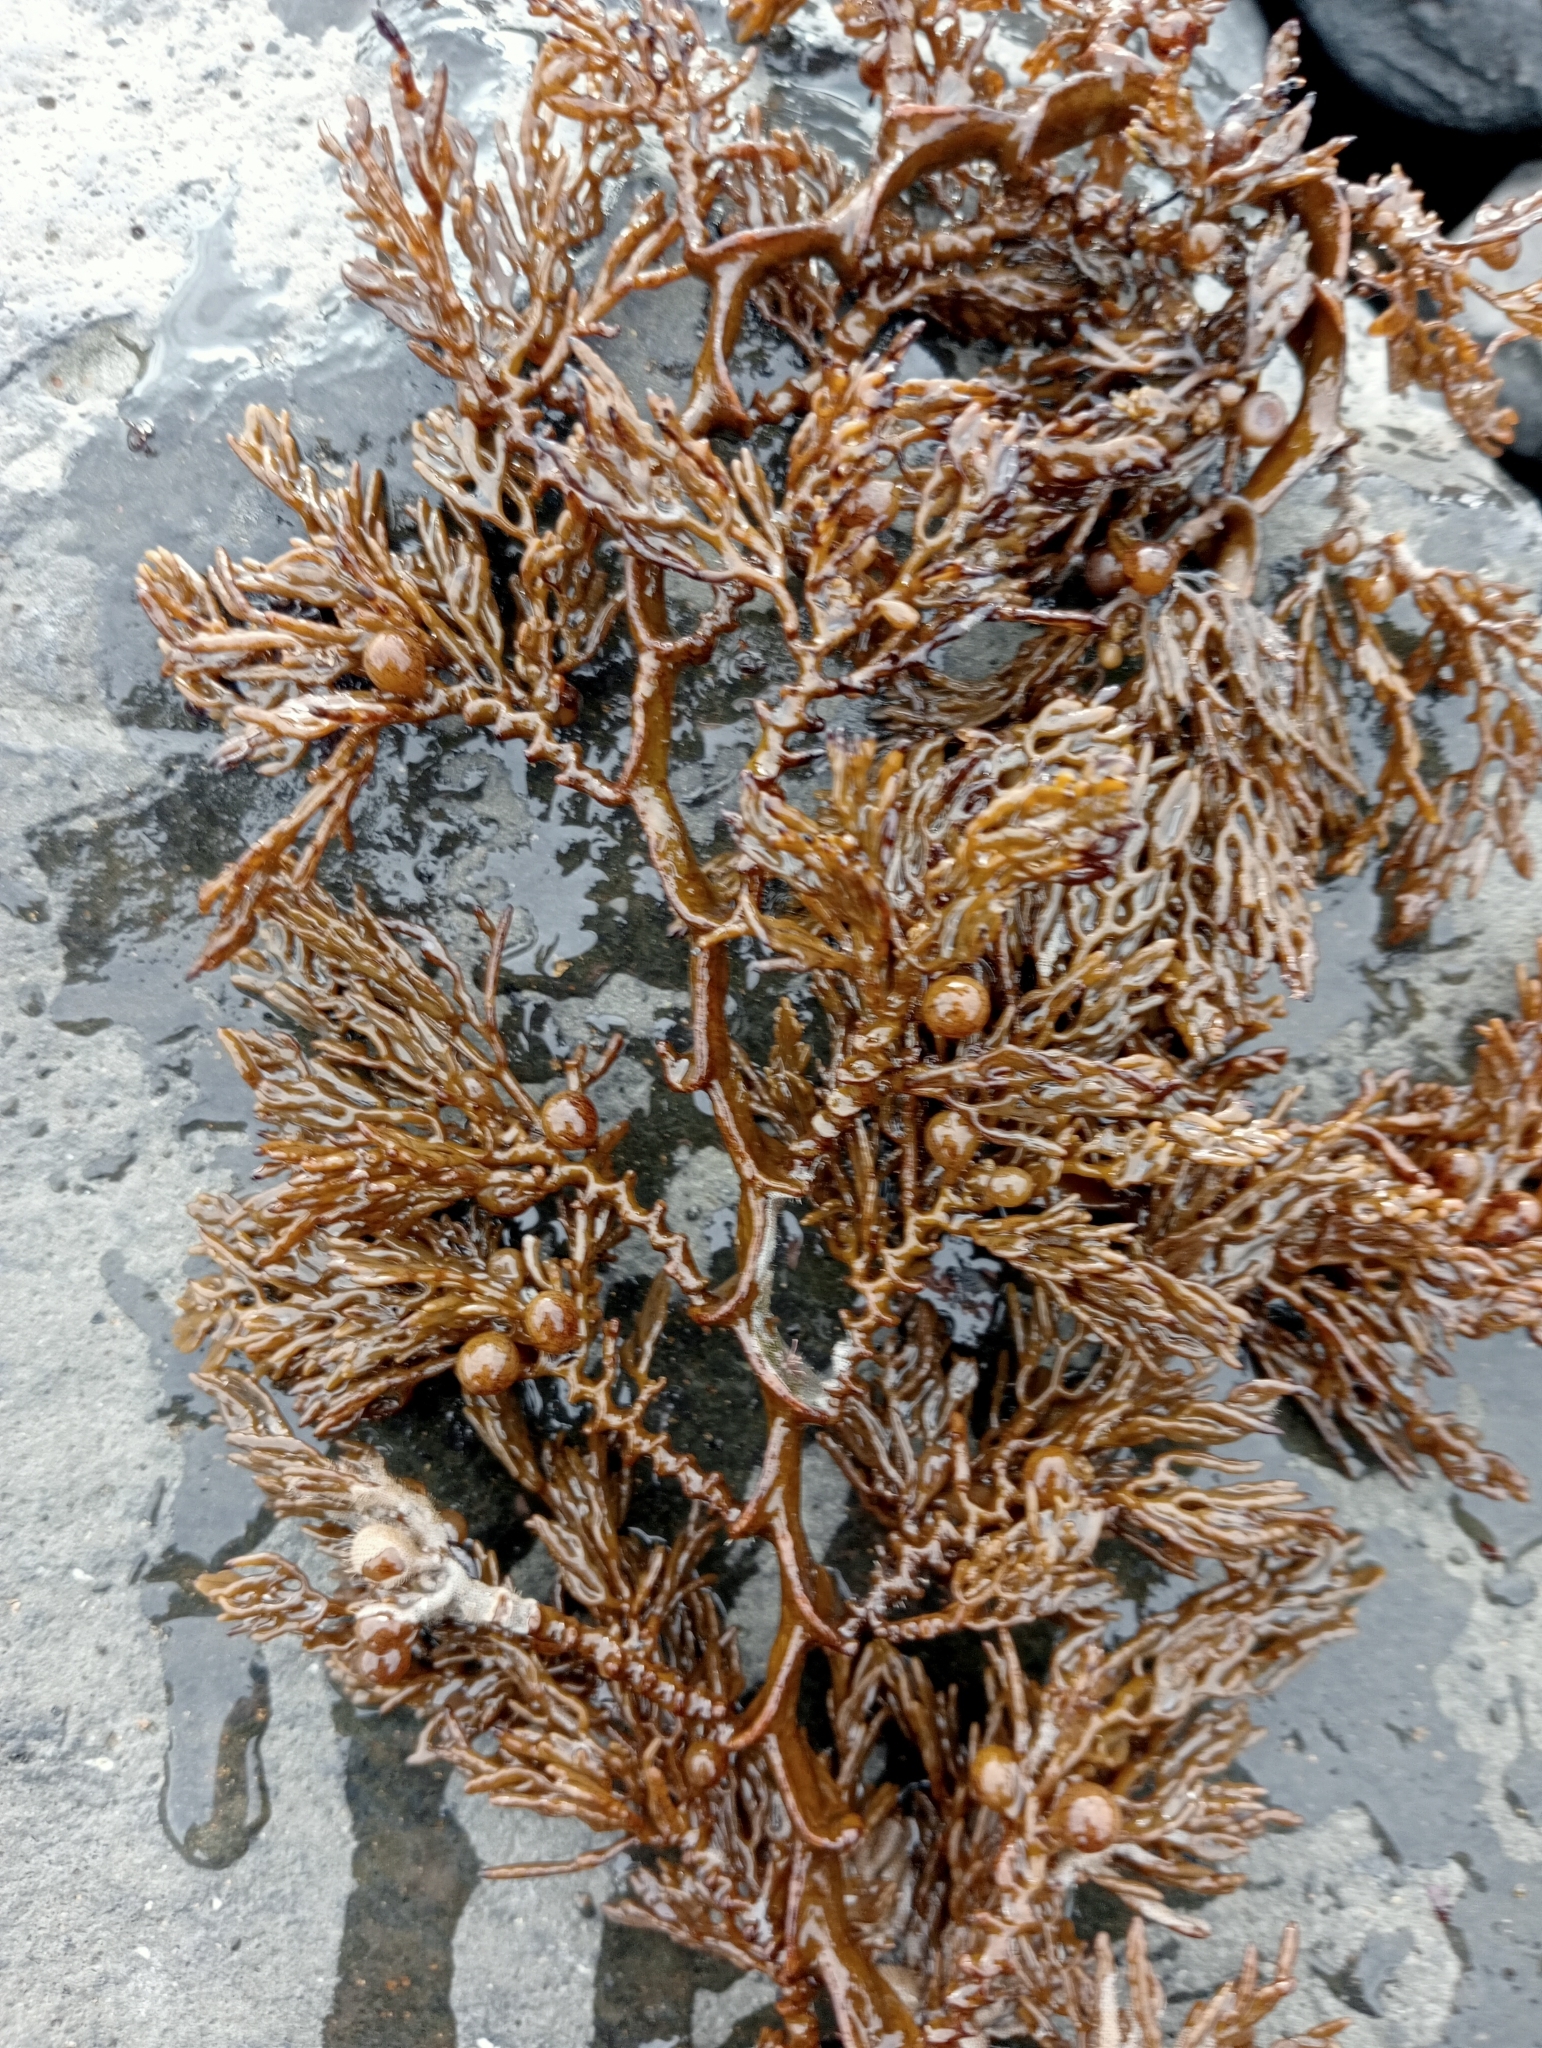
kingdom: Chromista
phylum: Ochrophyta
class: Phaeophyceae
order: Fucales
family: Sargassaceae
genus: Cystophora
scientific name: Cystophora scalaris
